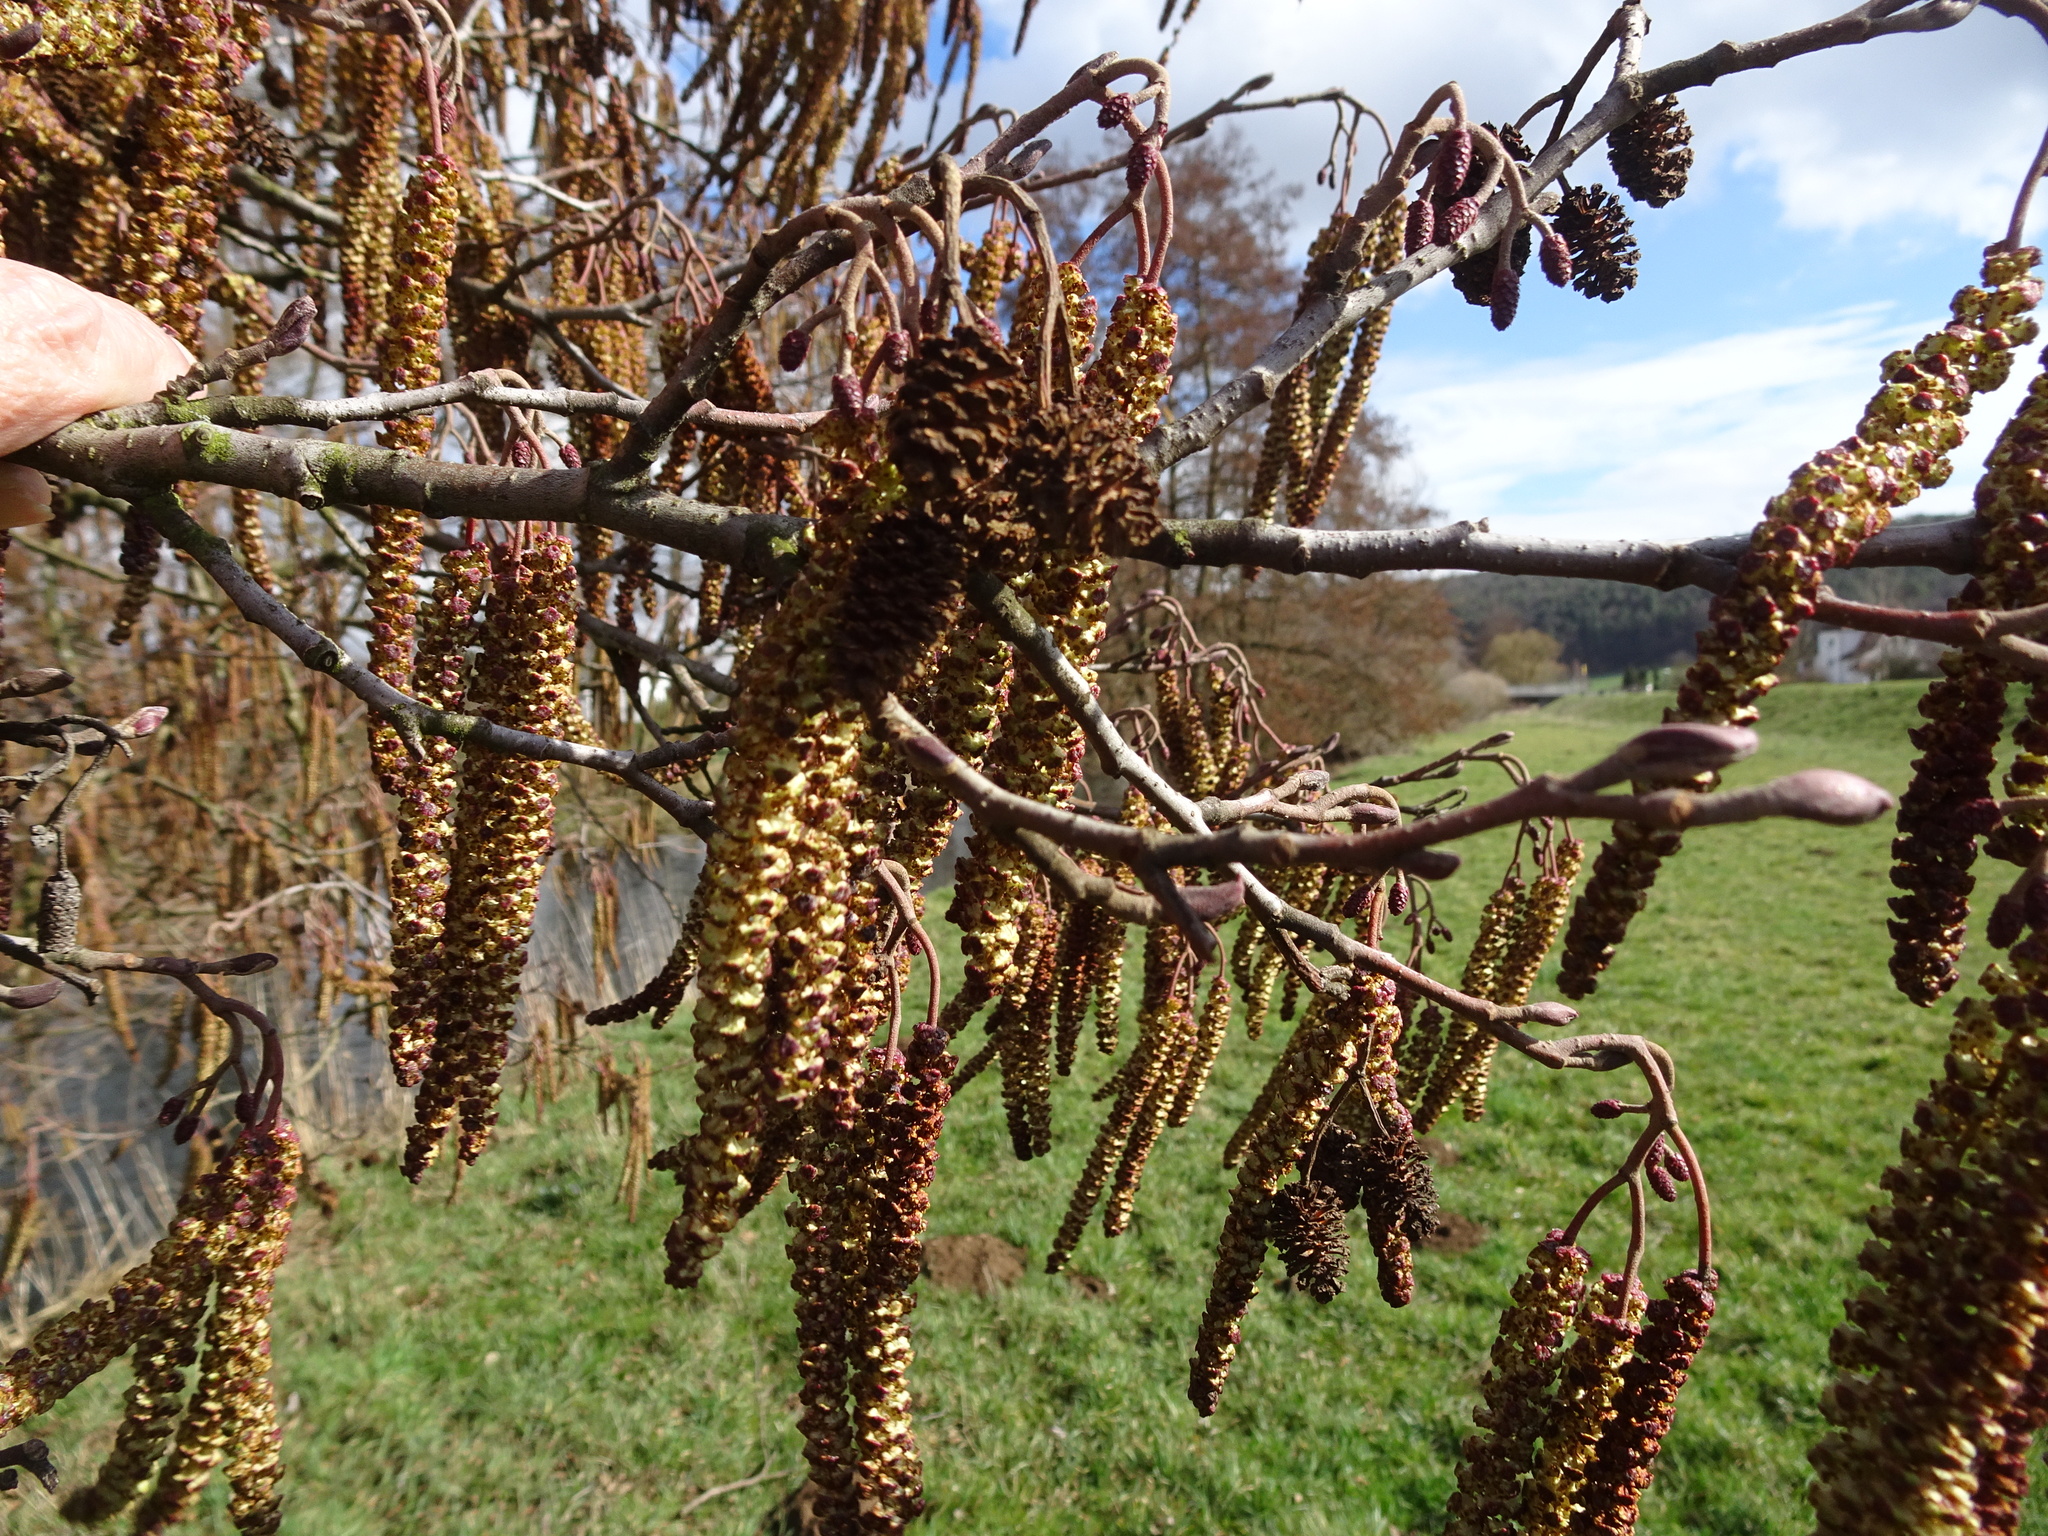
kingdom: Plantae
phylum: Tracheophyta
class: Magnoliopsida
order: Fagales
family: Betulaceae
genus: Alnus
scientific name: Alnus glutinosa
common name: Black alder
